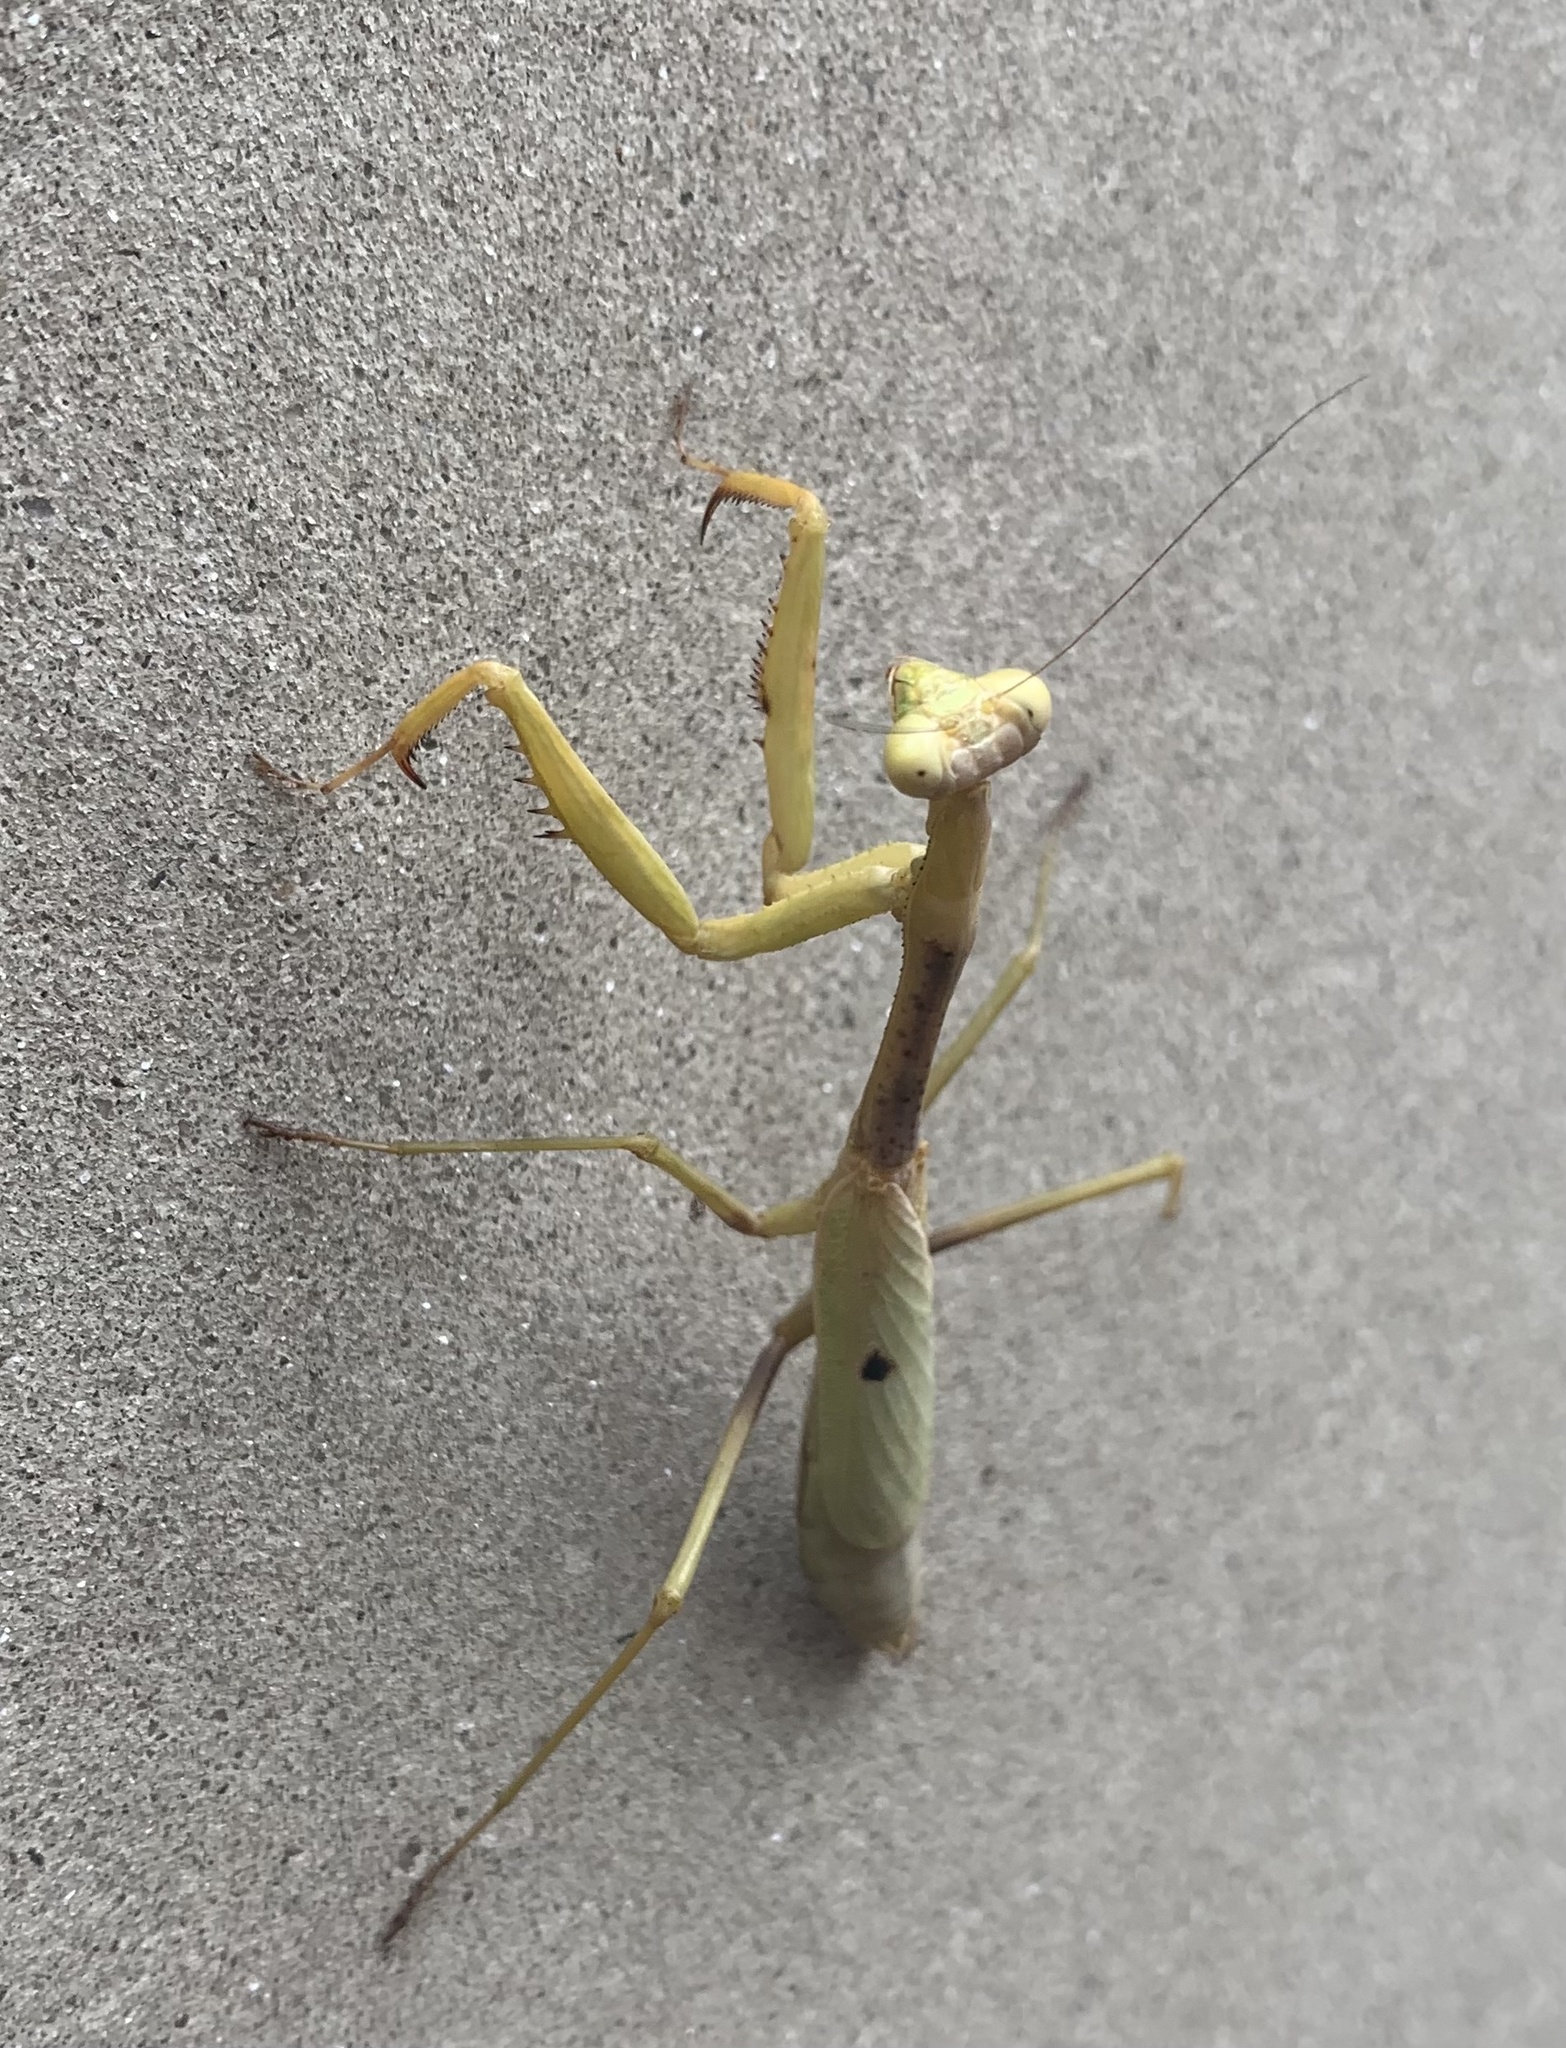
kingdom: Animalia
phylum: Arthropoda
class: Insecta
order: Mantodea
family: Mantidae
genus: Stagmomantis
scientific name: Stagmomantis carolina
